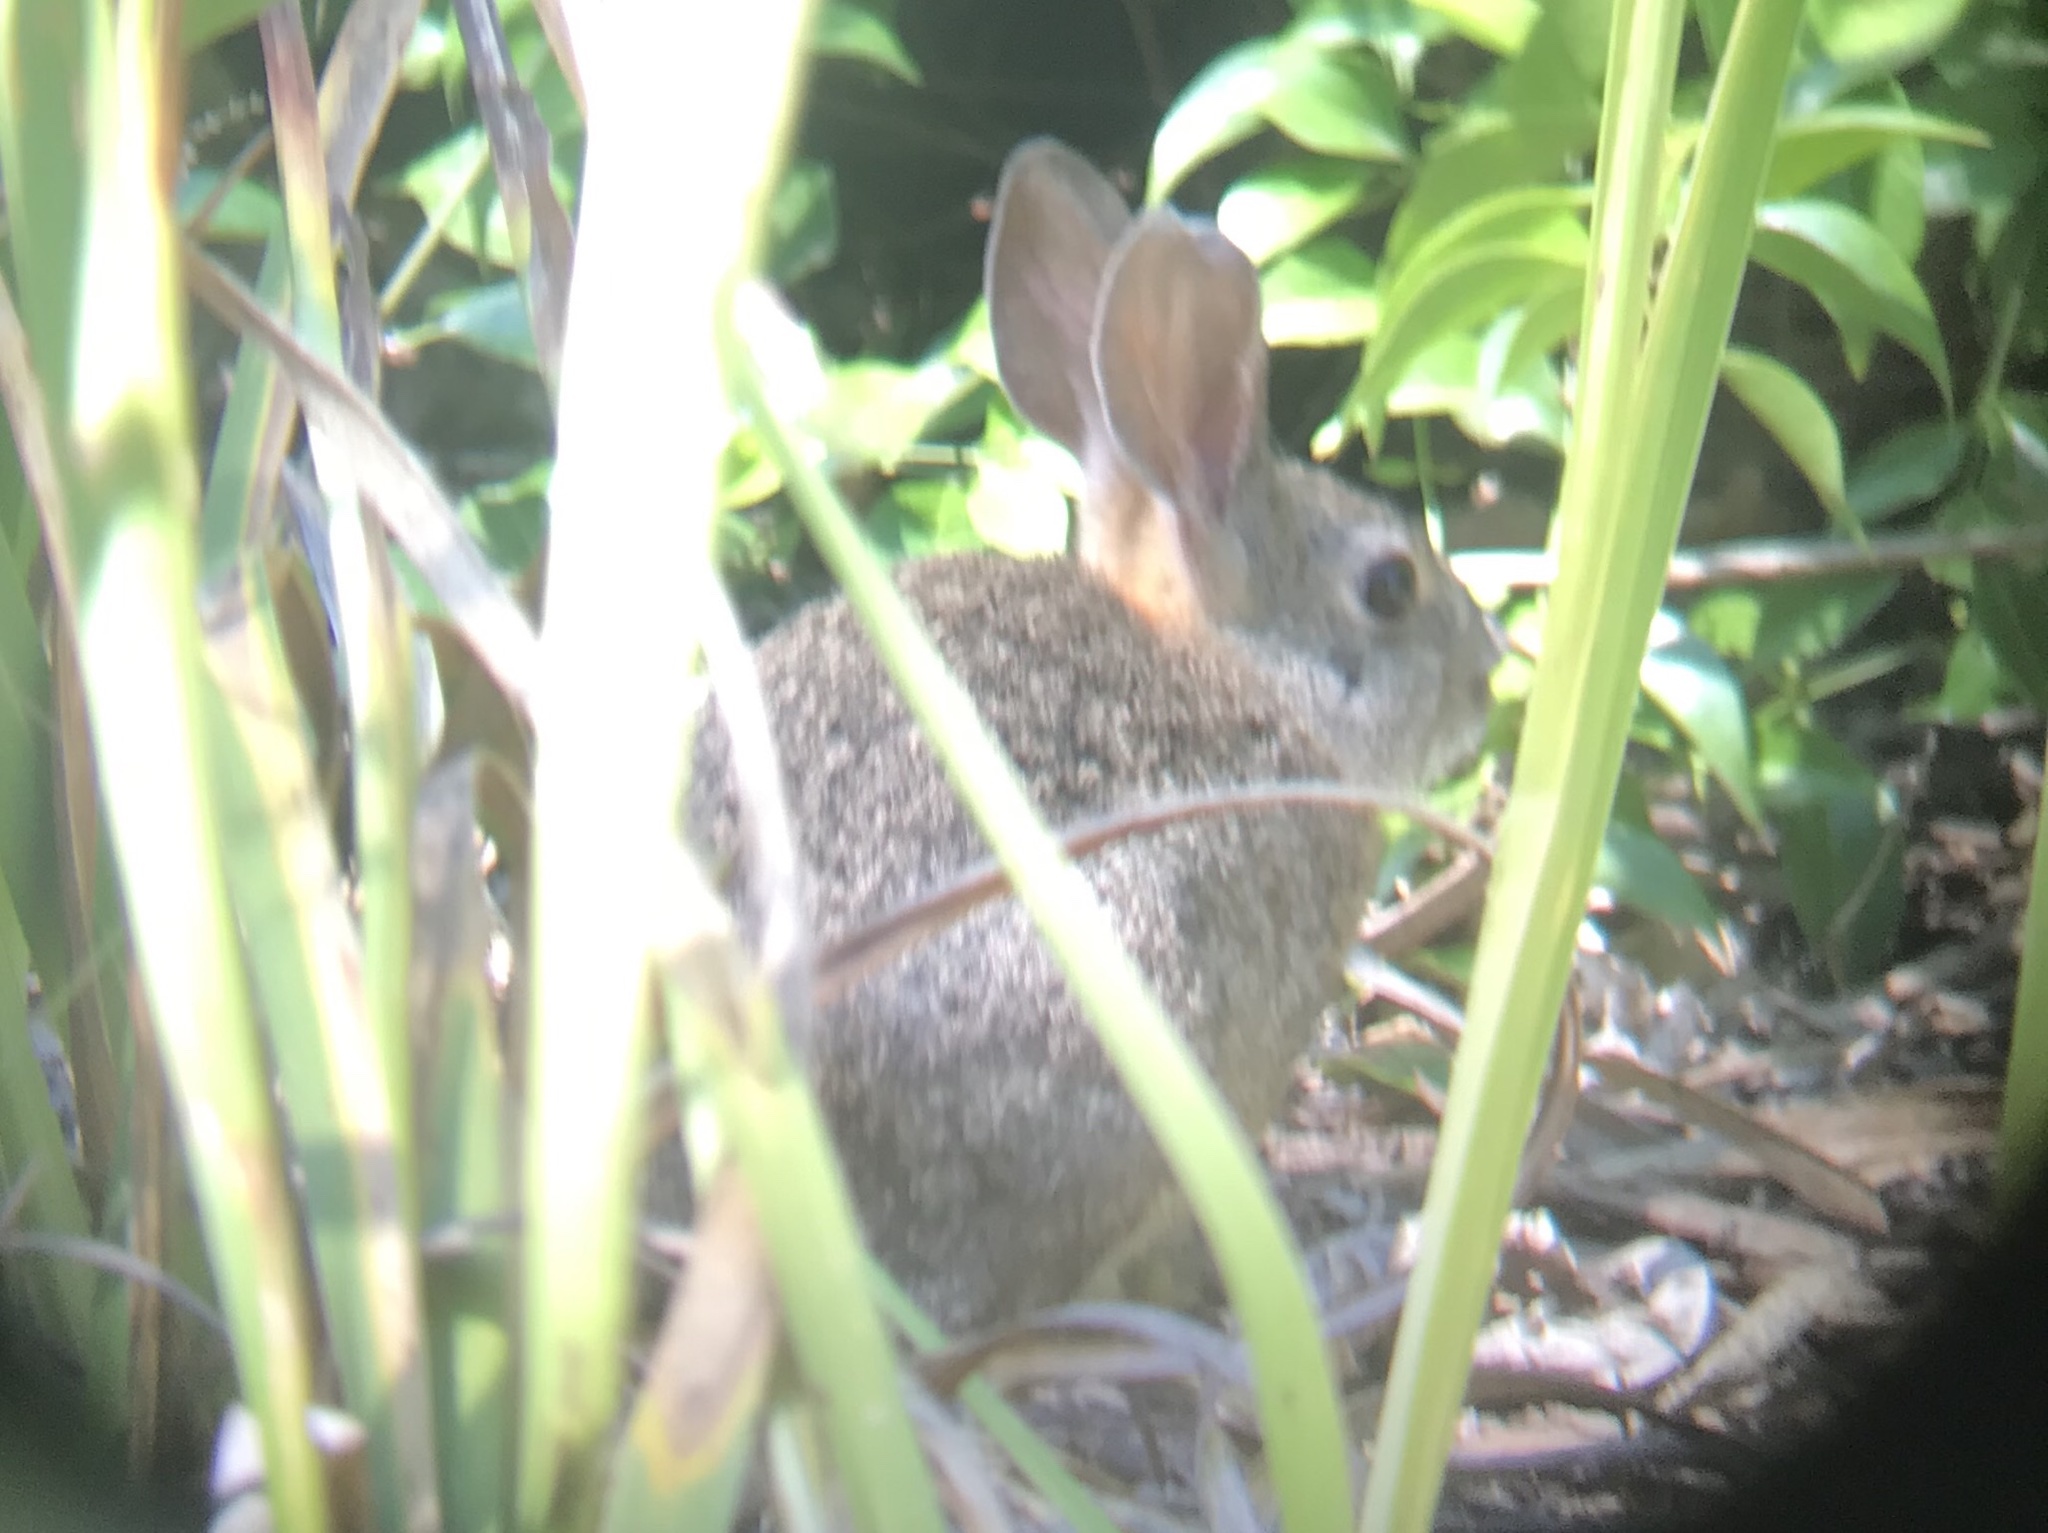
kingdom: Animalia
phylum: Chordata
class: Mammalia
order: Lagomorpha
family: Leporidae
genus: Sylvilagus
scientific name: Sylvilagus bachmani
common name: Brush rabbit
